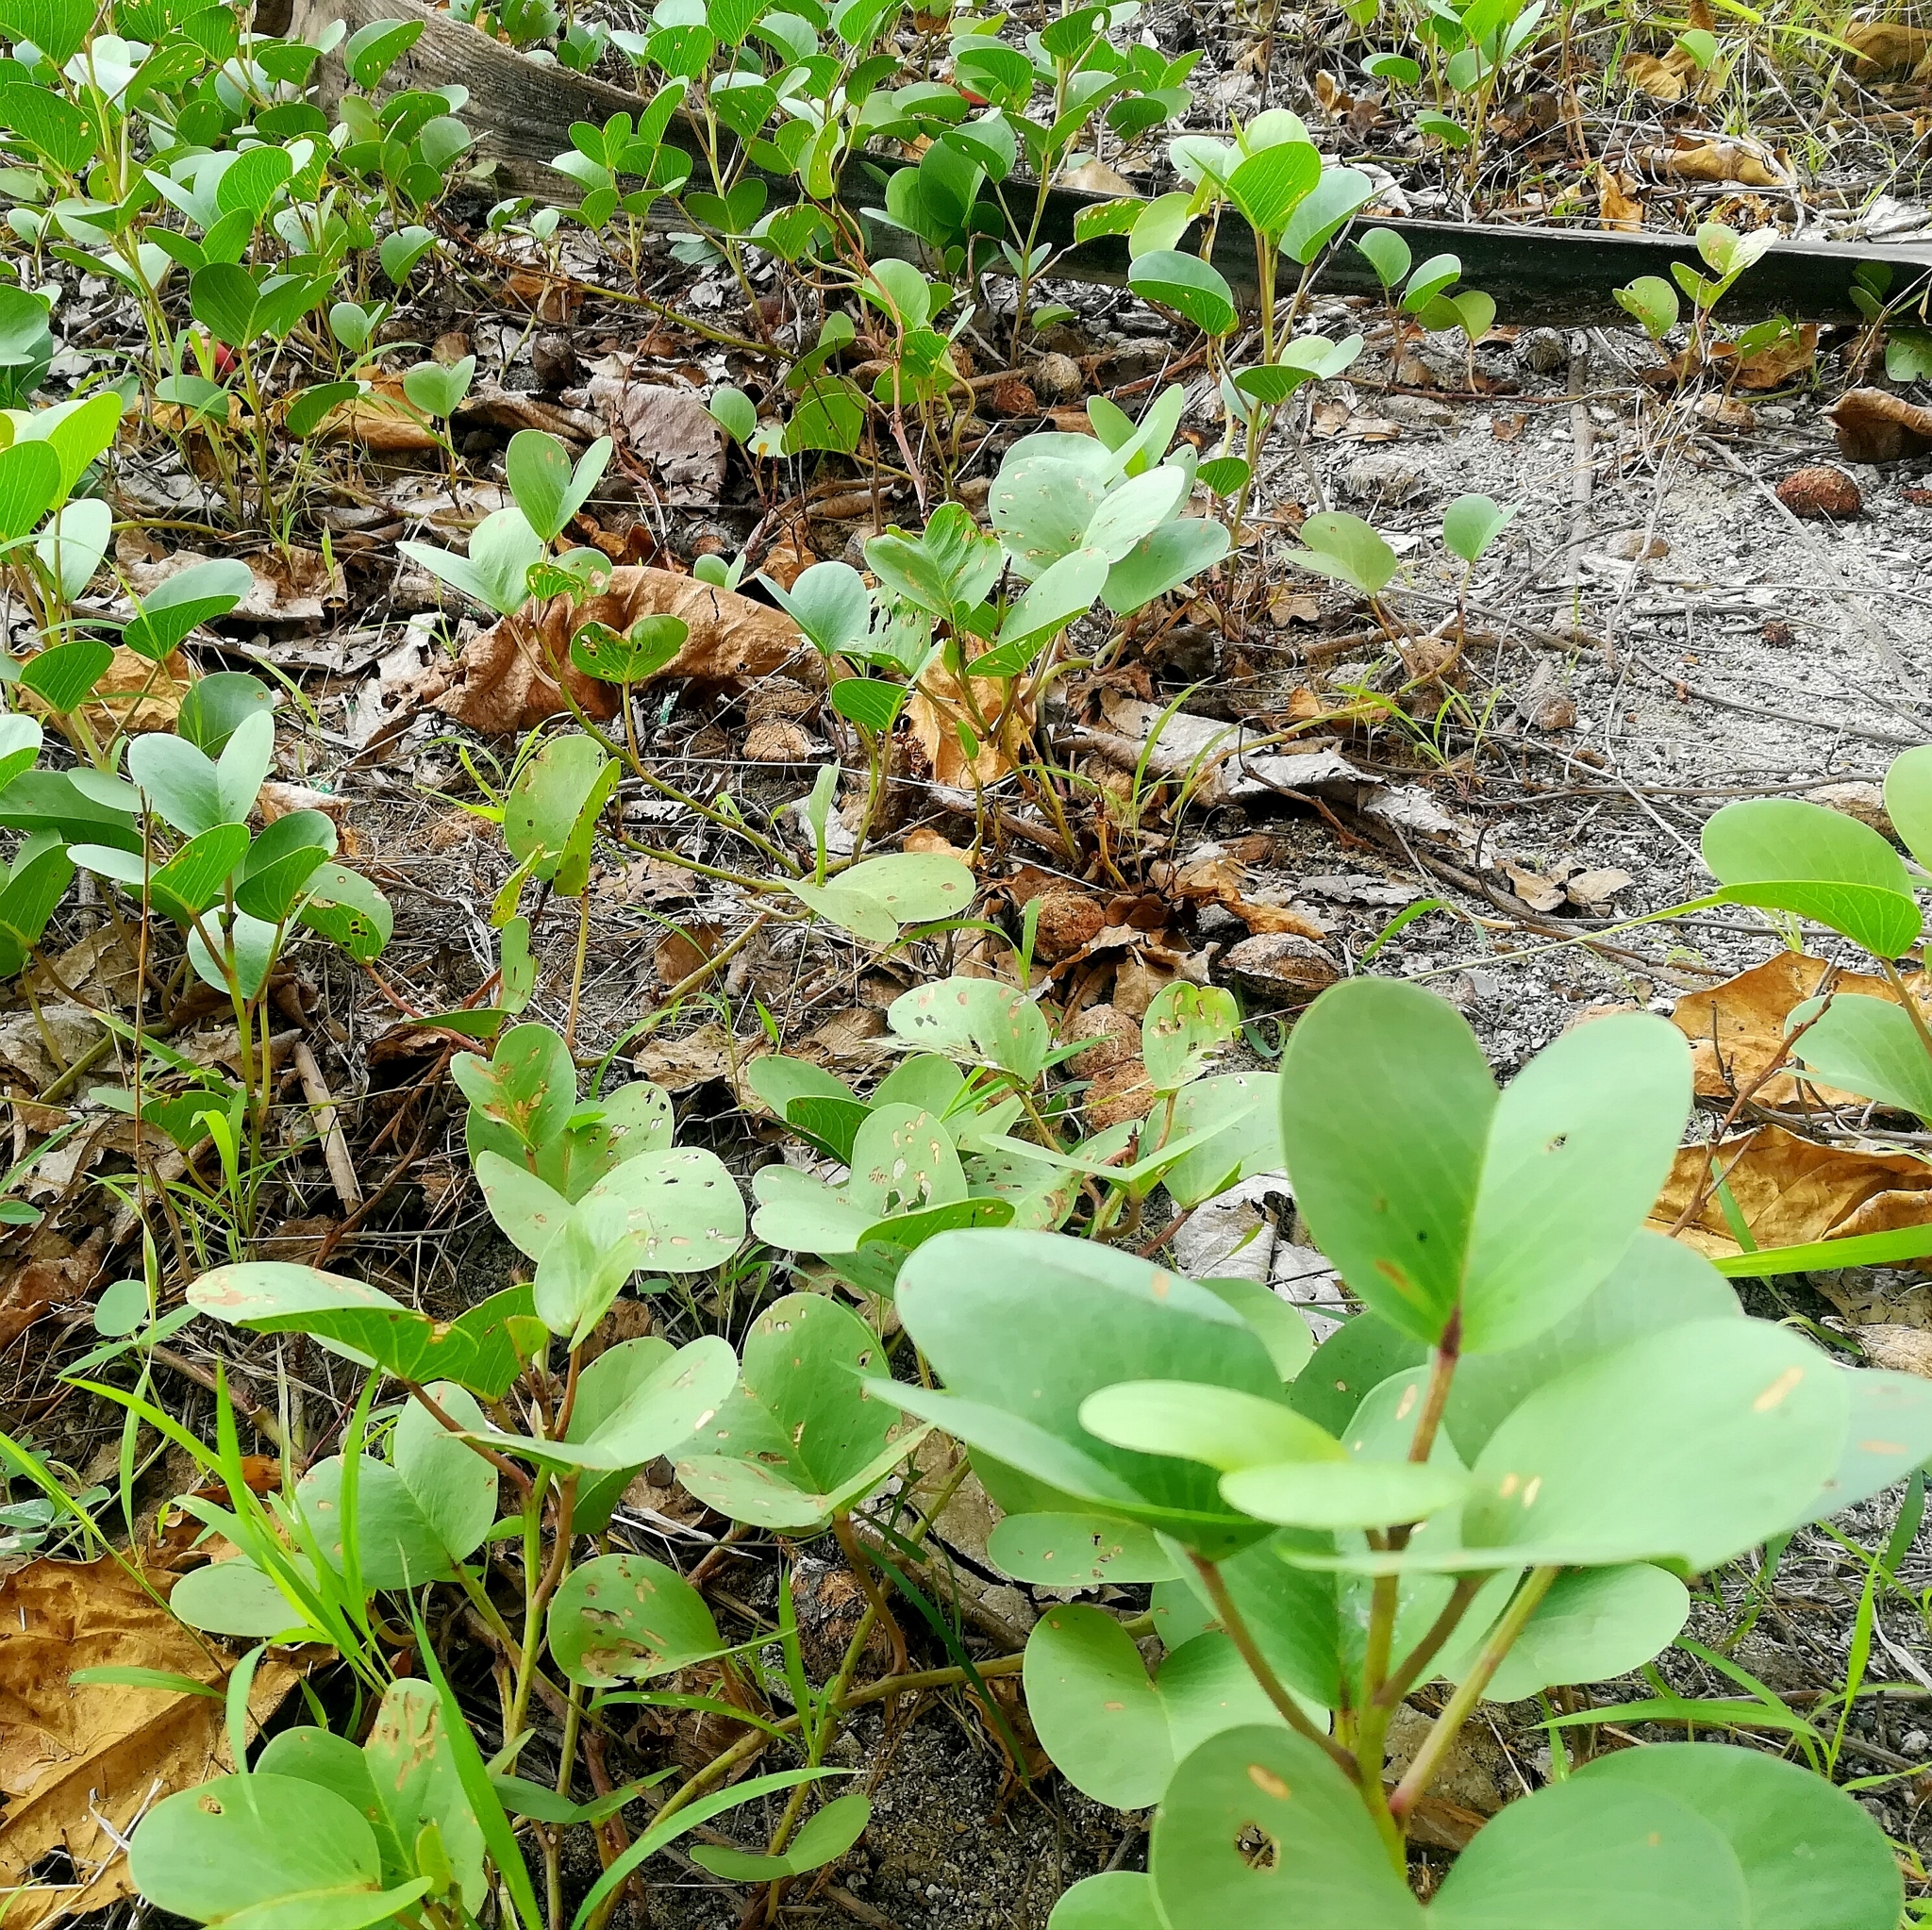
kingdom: Plantae
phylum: Tracheophyta
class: Magnoliopsida
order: Solanales
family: Convolvulaceae
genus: Ipomoea
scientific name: Ipomoea pes-caprae
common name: Beach morning glory
